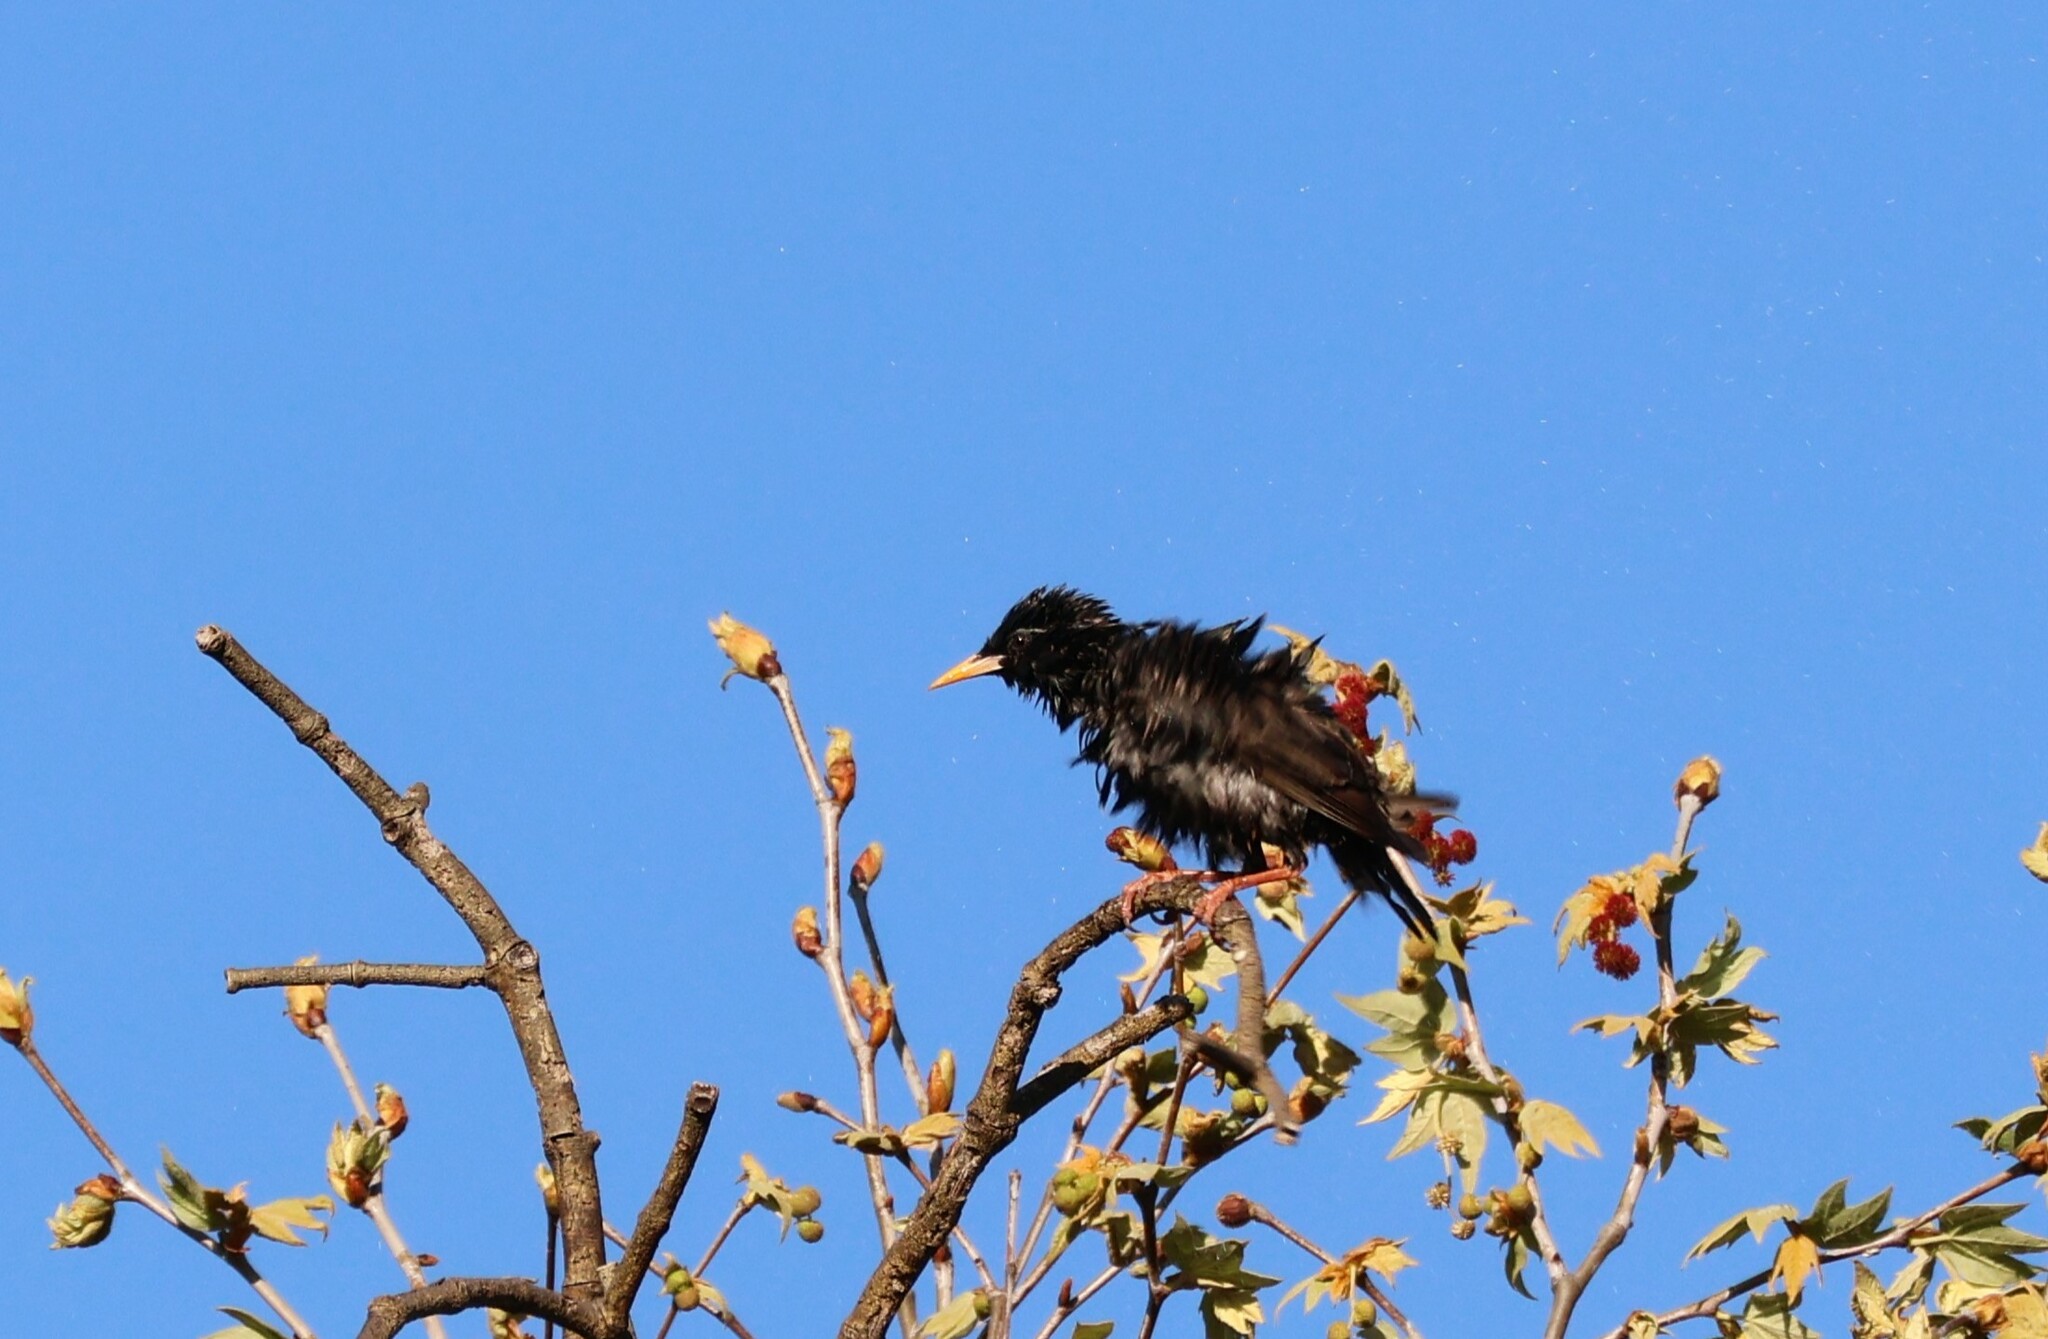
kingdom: Animalia
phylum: Chordata
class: Aves
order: Passeriformes
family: Sturnidae
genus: Sturnus
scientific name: Sturnus vulgaris
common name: Common starling
